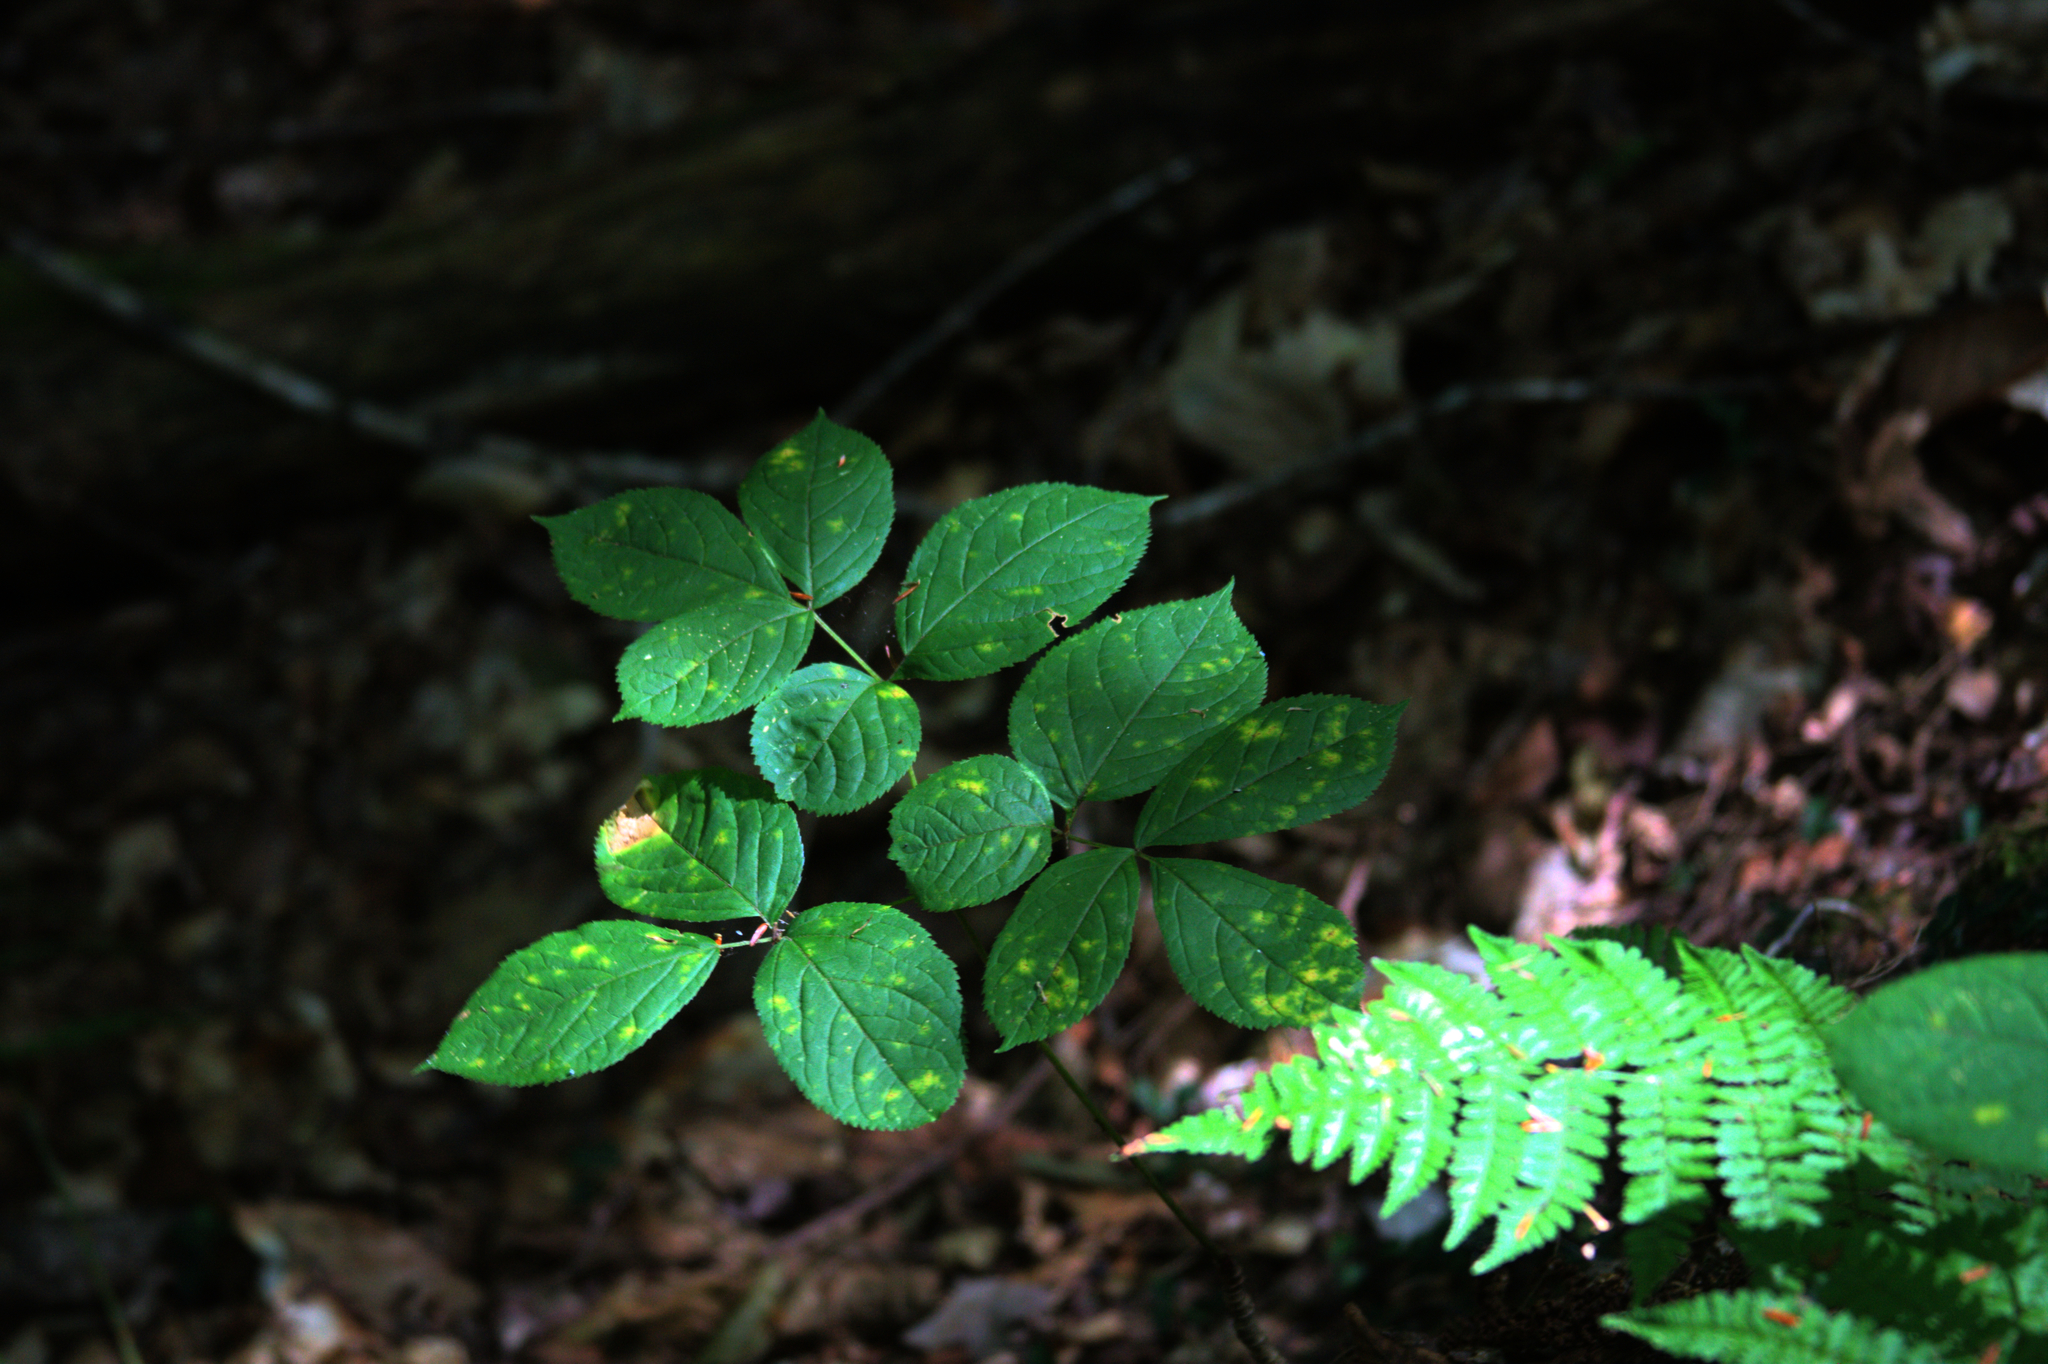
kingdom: Plantae
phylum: Tracheophyta
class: Magnoliopsida
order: Apiales
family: Araliaceae
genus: Aralia
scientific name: Aralia nudicaulis
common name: Wild sarsaparilla
